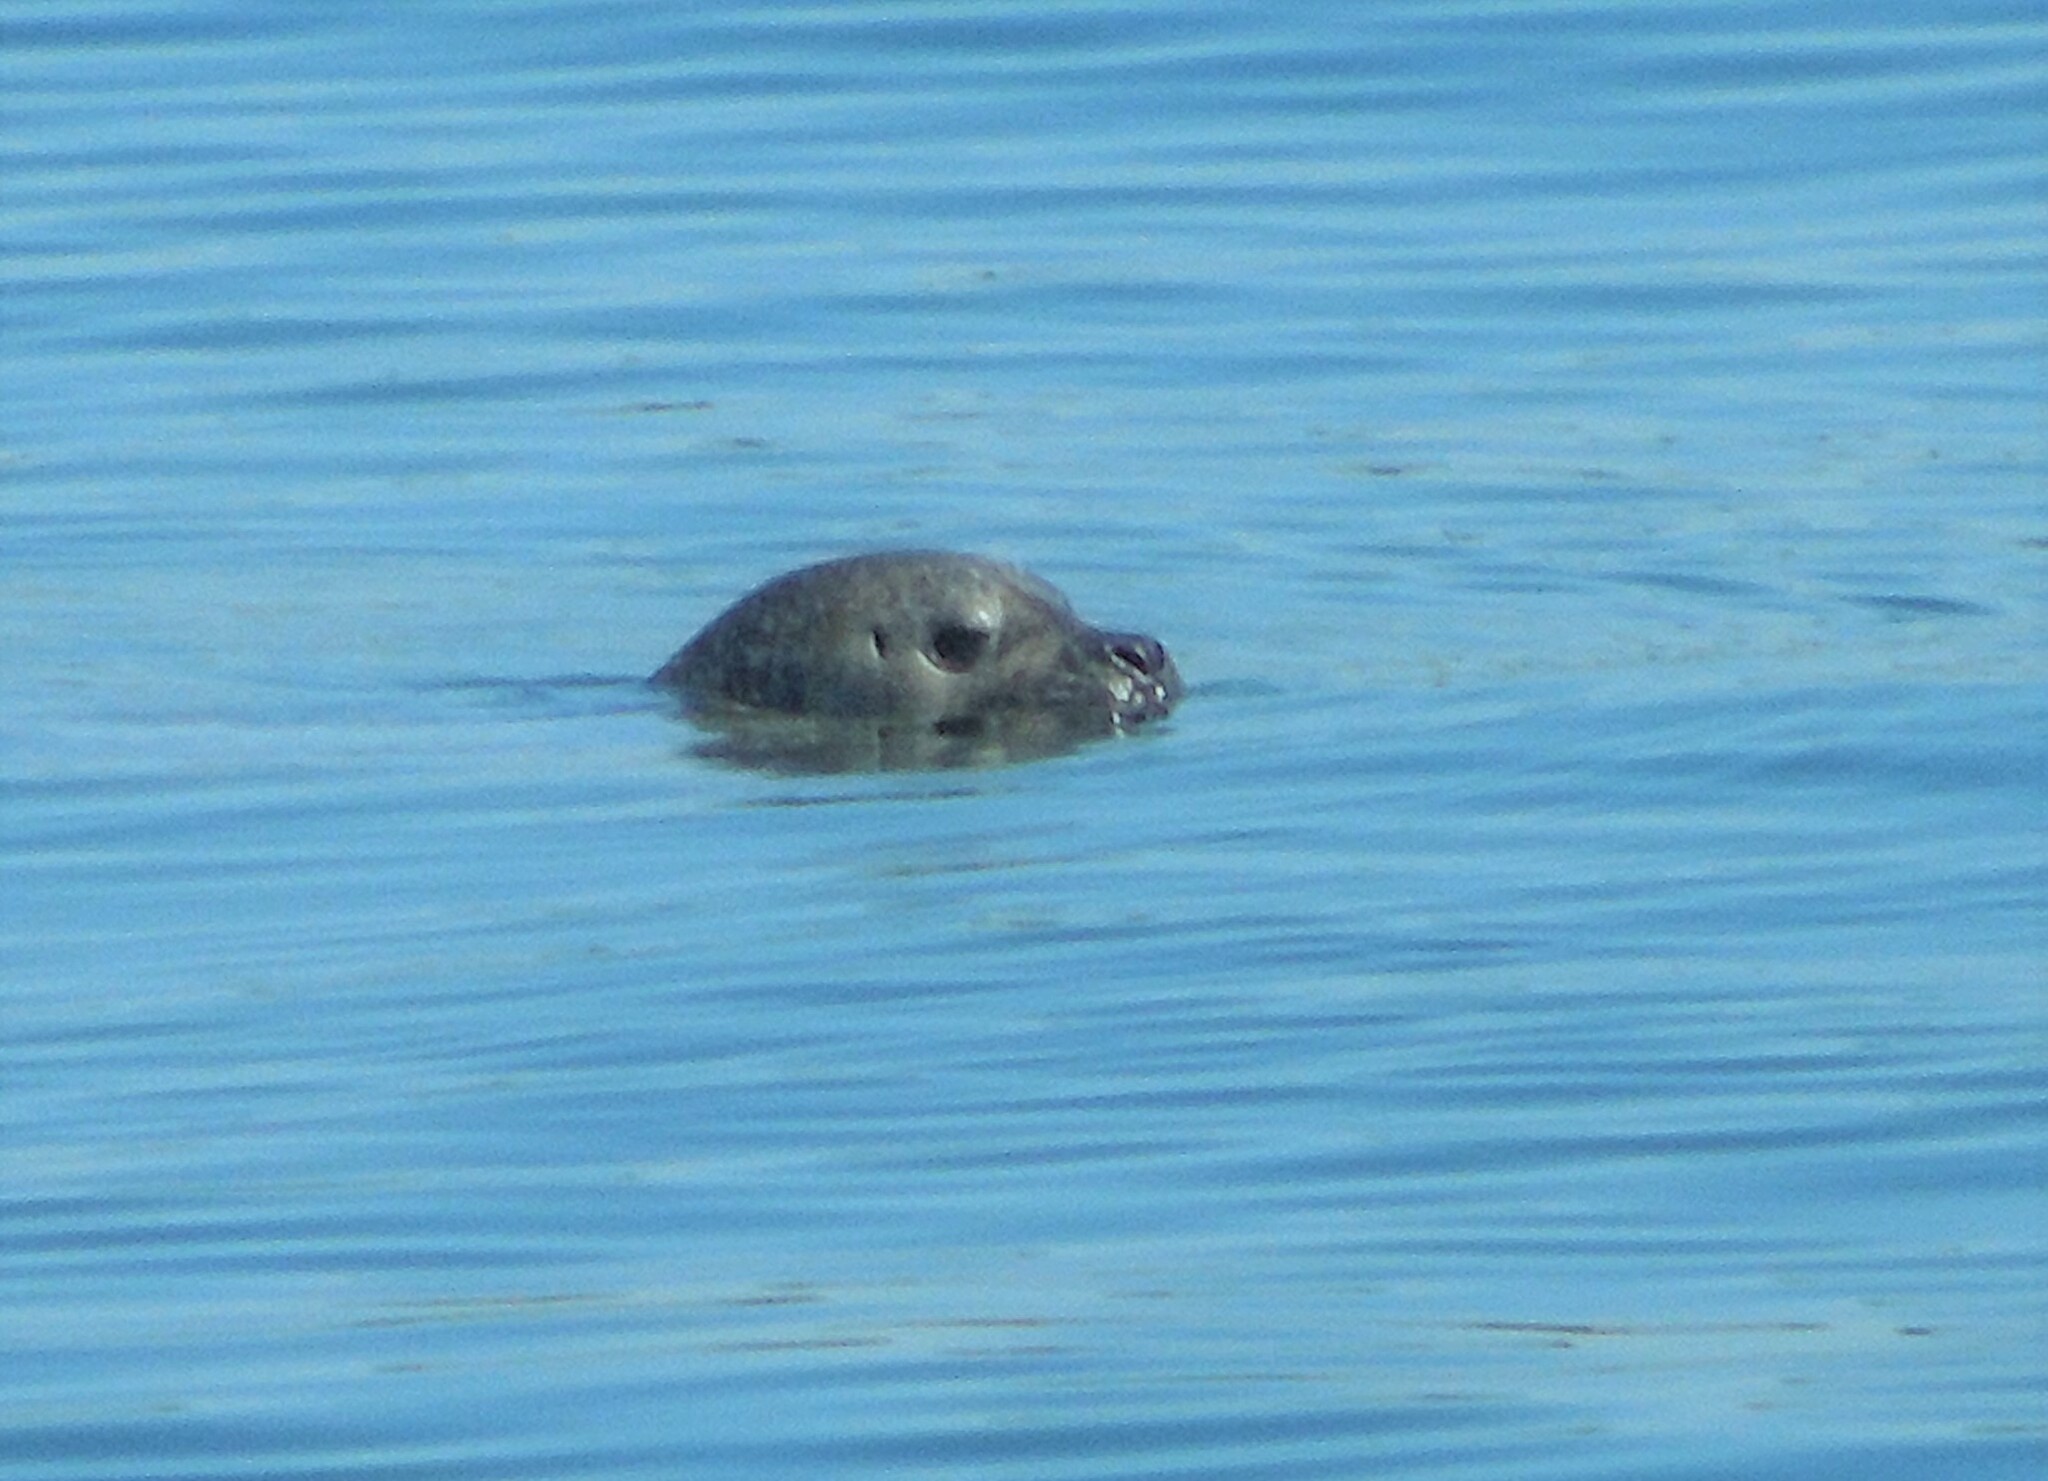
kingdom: Animalia
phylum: Chordata
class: Mammalia
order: Carnivora
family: Phocidae
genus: Phoca
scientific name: Phoca vitulina
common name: Harbor seal
